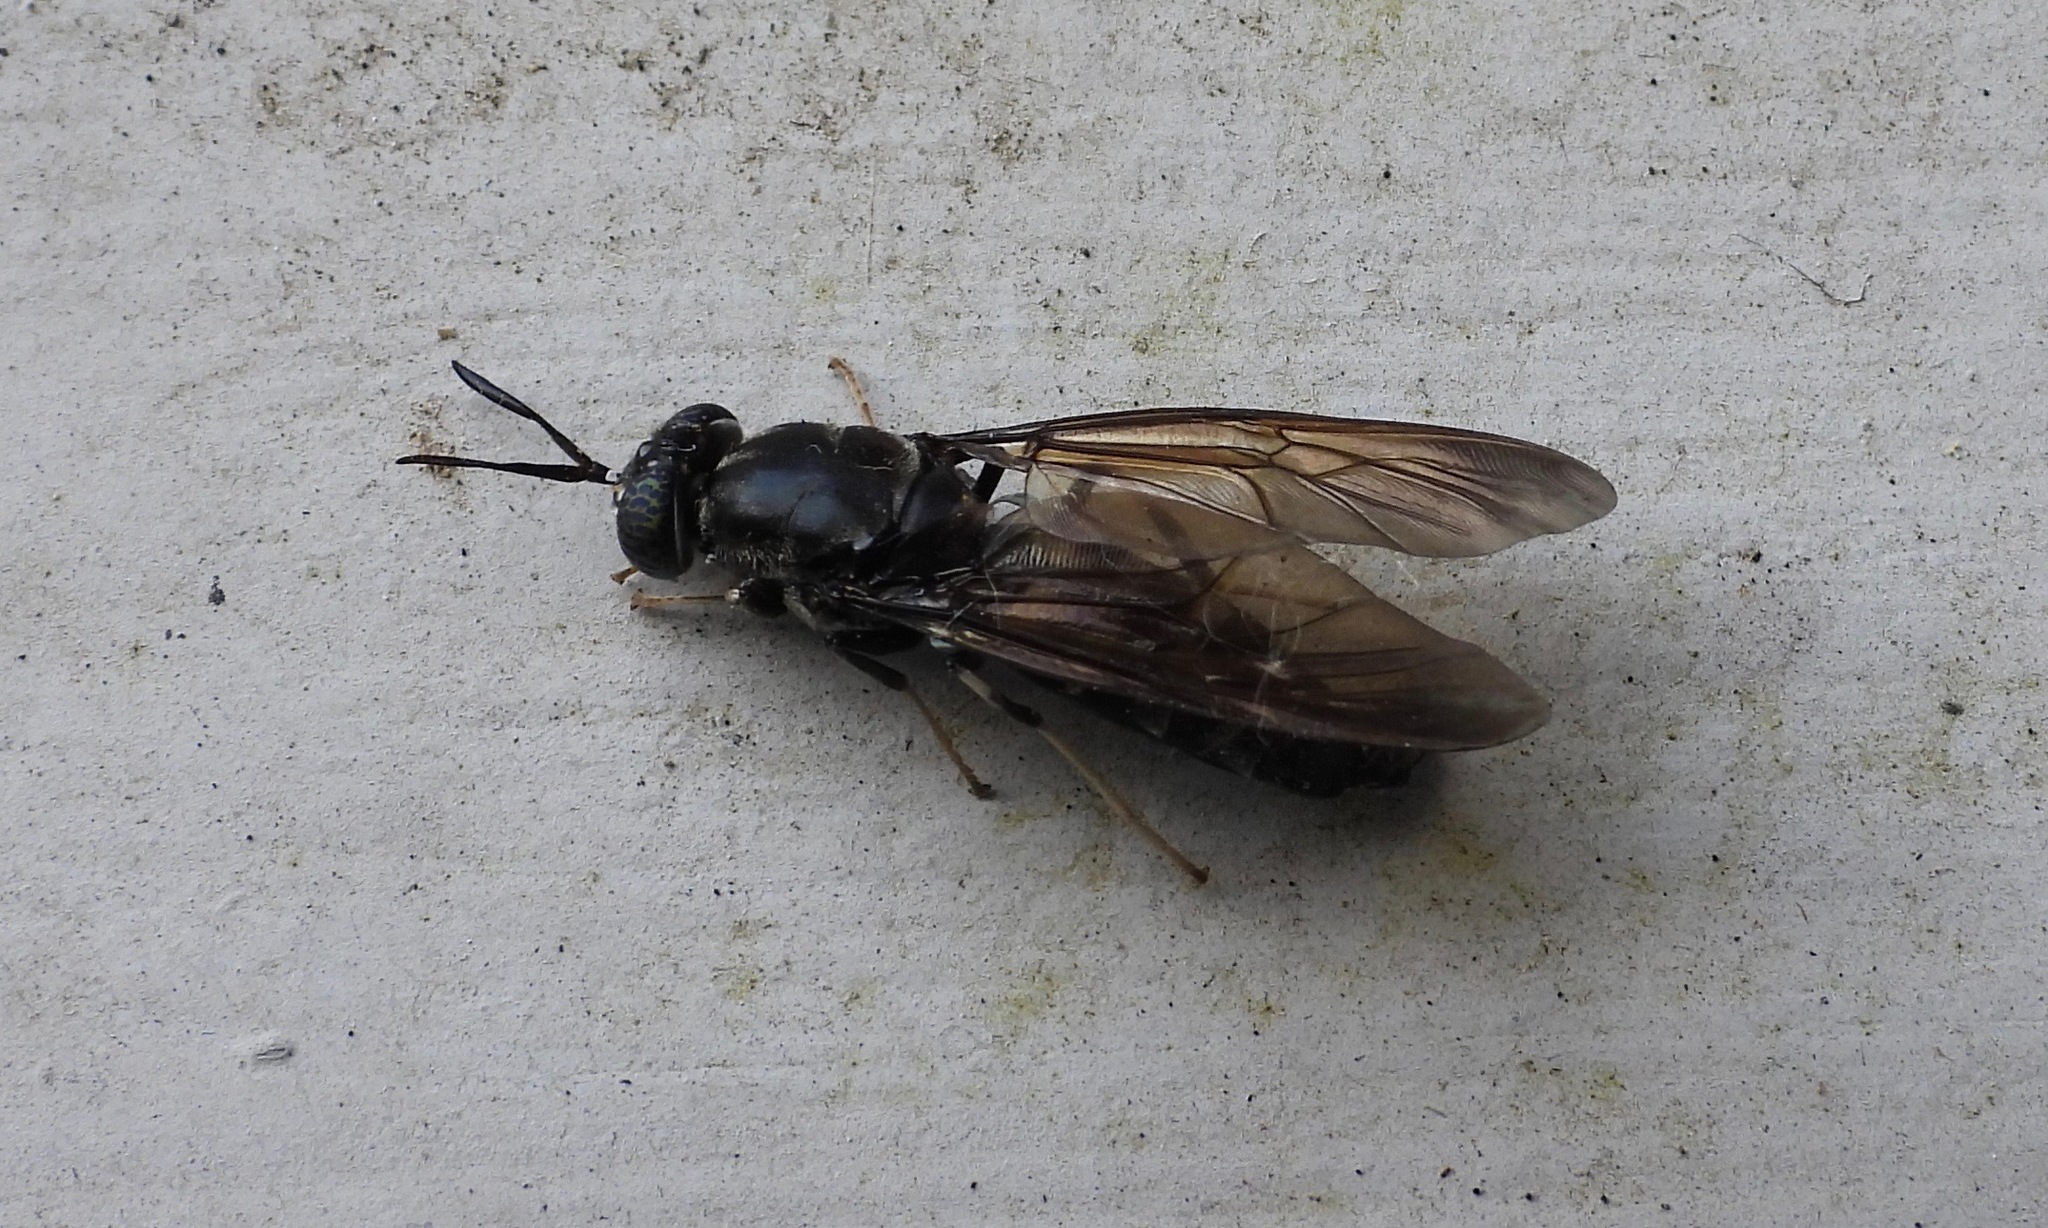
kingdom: Animalia
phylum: Arthropoda
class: Insecta
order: Diptera
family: Stratiomyidae
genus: Hermetia
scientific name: Hermetia illucens
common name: Black soldier fly
